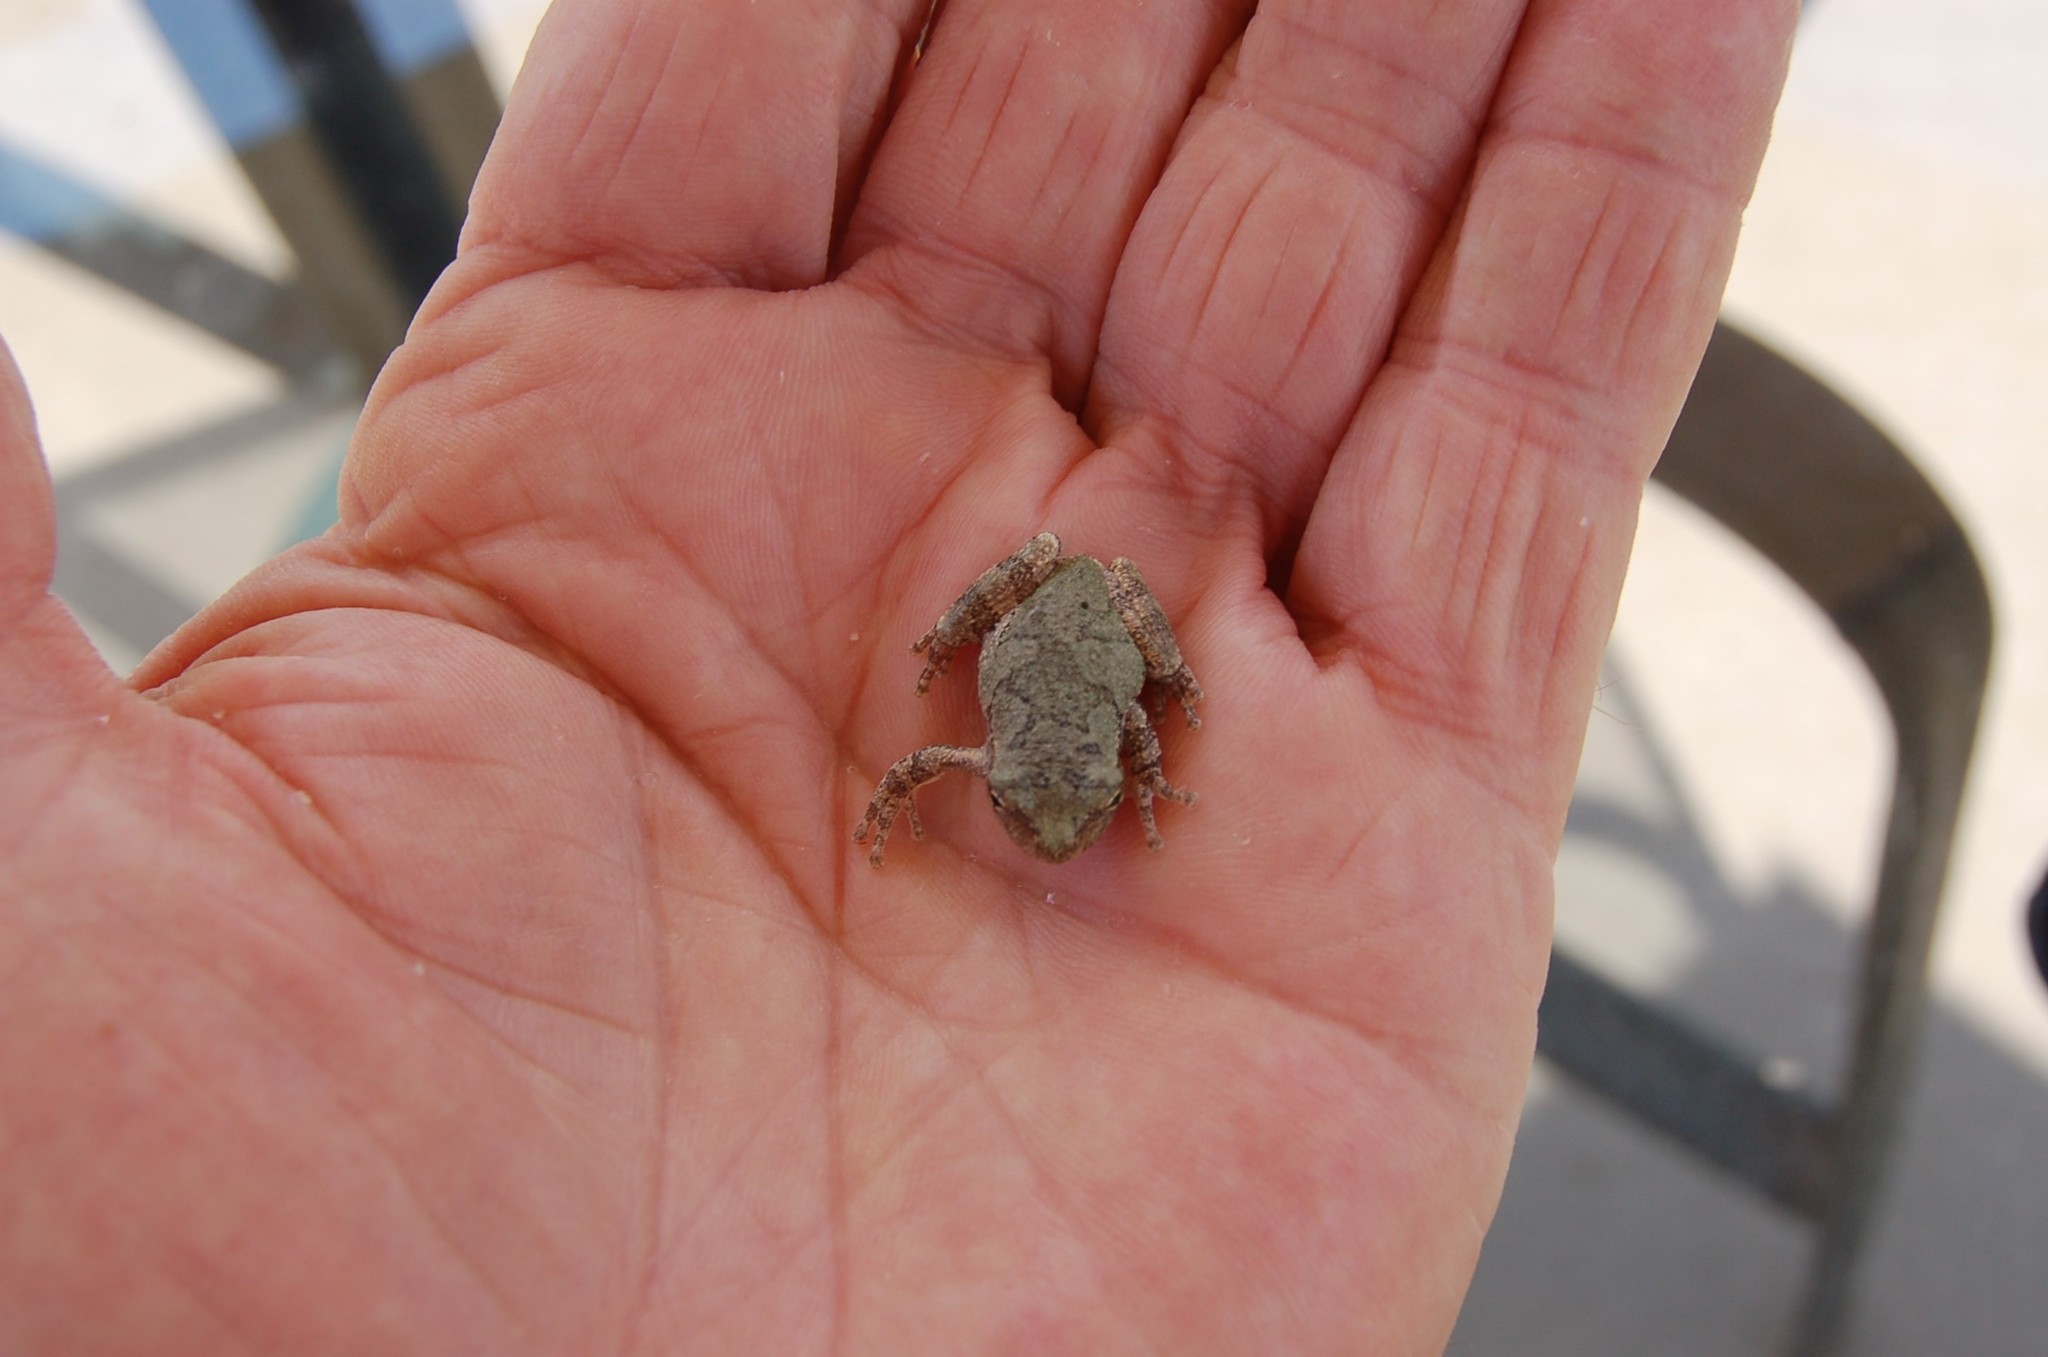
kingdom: Animalia
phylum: Chordata
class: Amphibia
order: Anura
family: Hylidae
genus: Hyla
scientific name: Hyla
